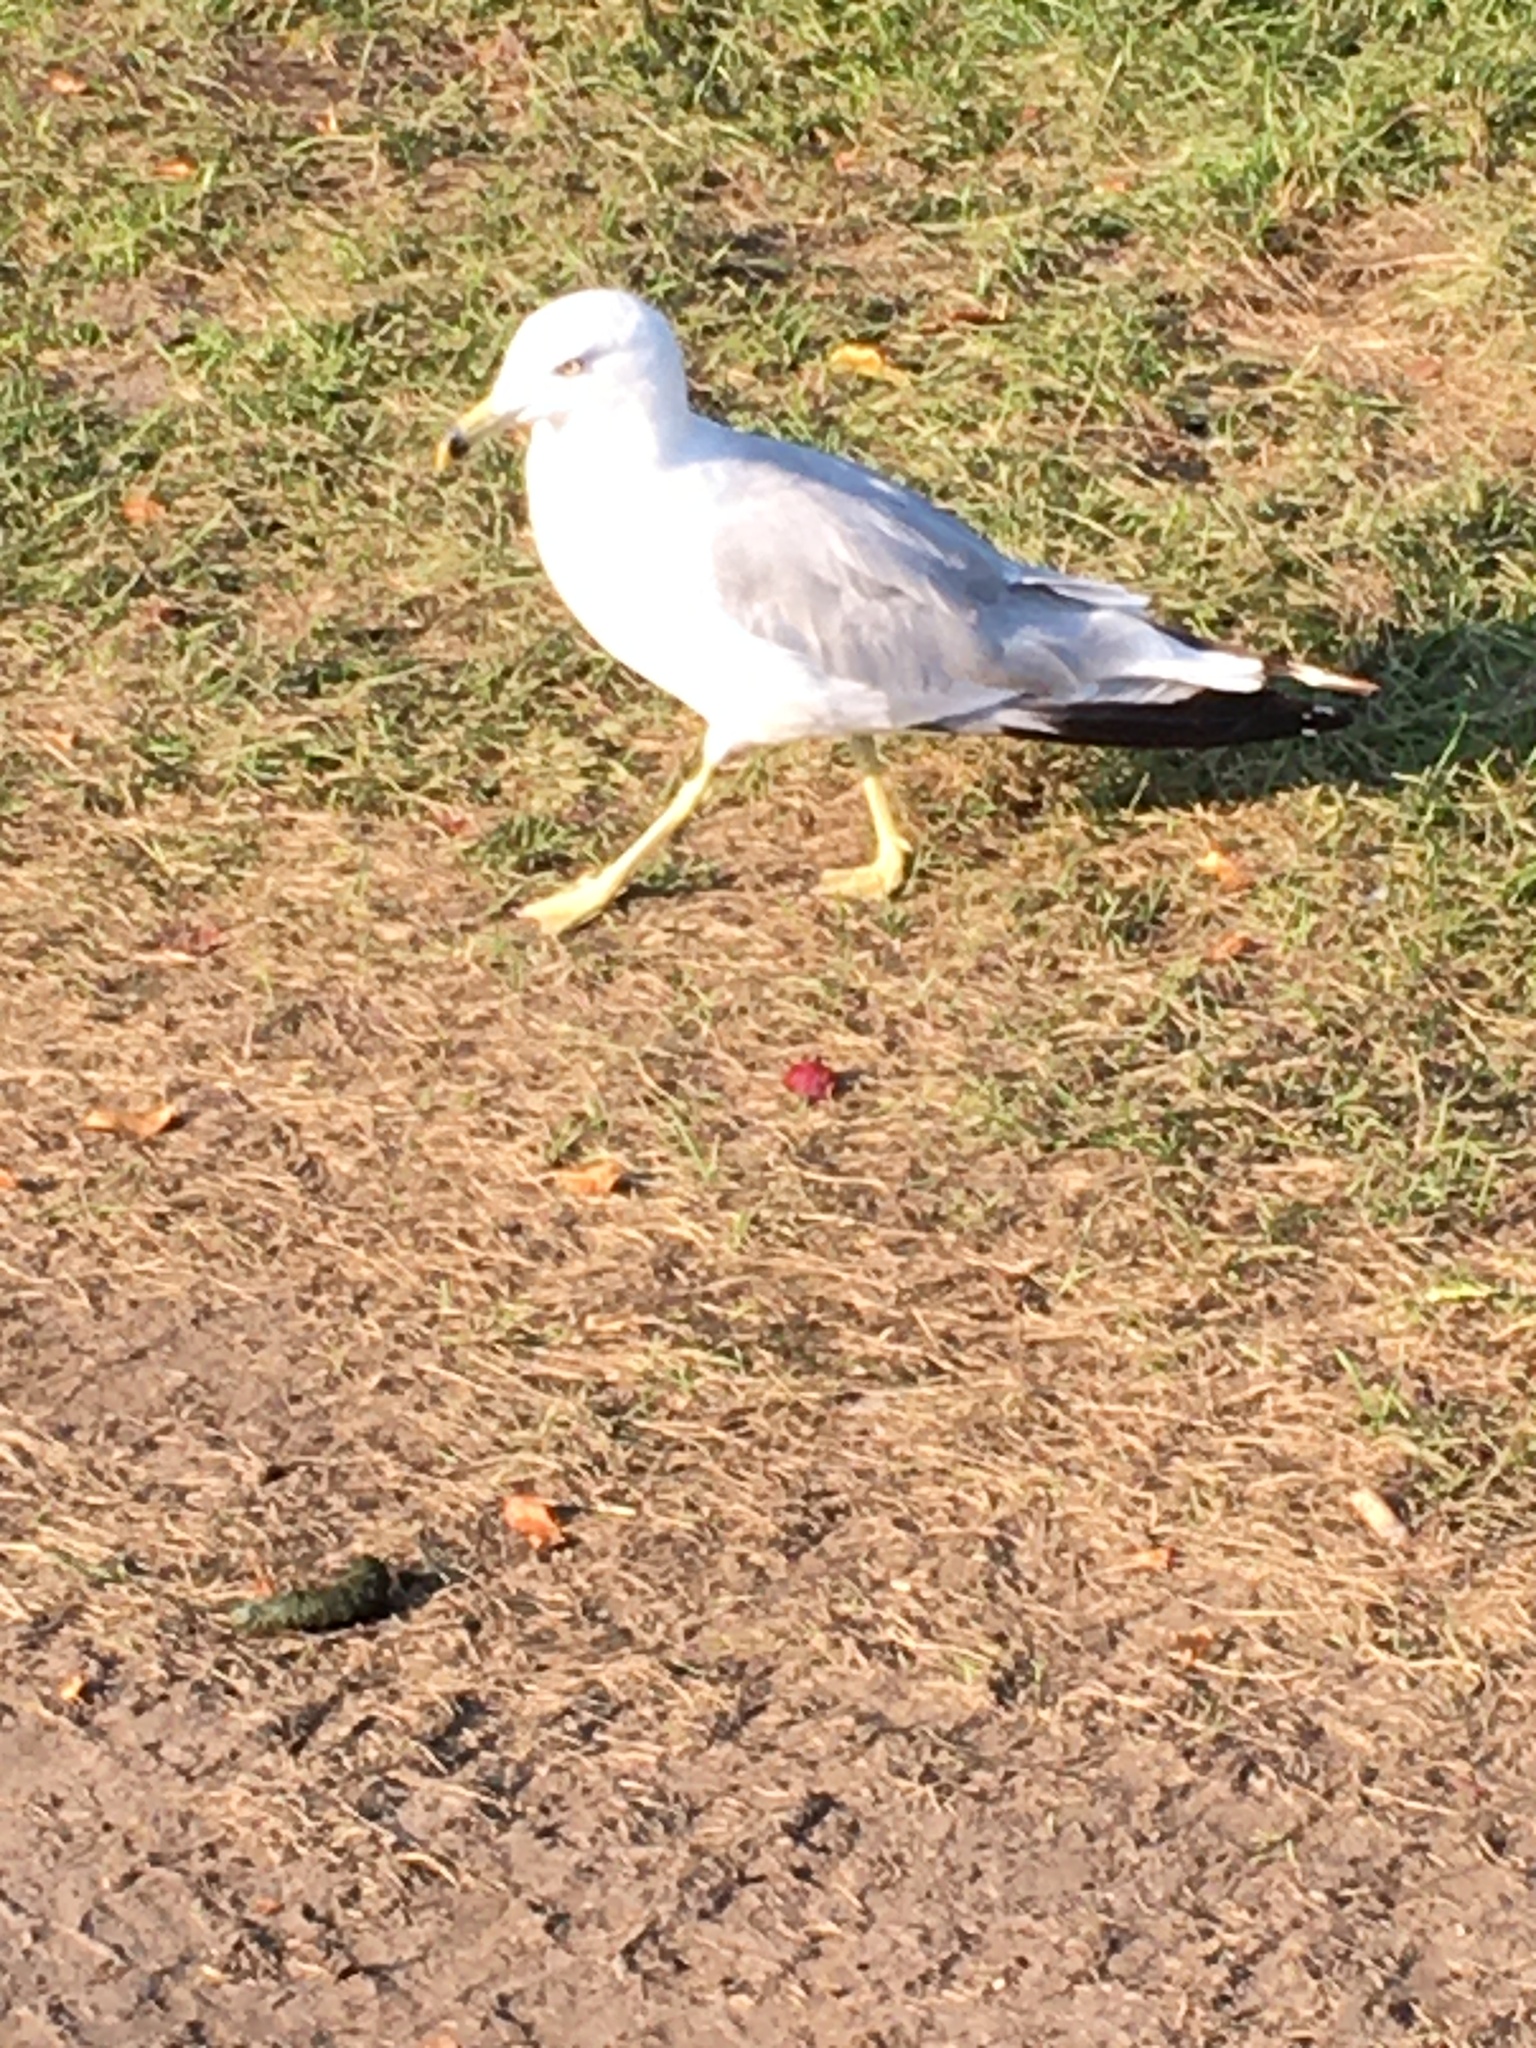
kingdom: Animalia
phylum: Chordata
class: Aves
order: Charadriiformes
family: Laridae
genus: Larus
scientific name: Larus delawarensis
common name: Ring-billed gull
